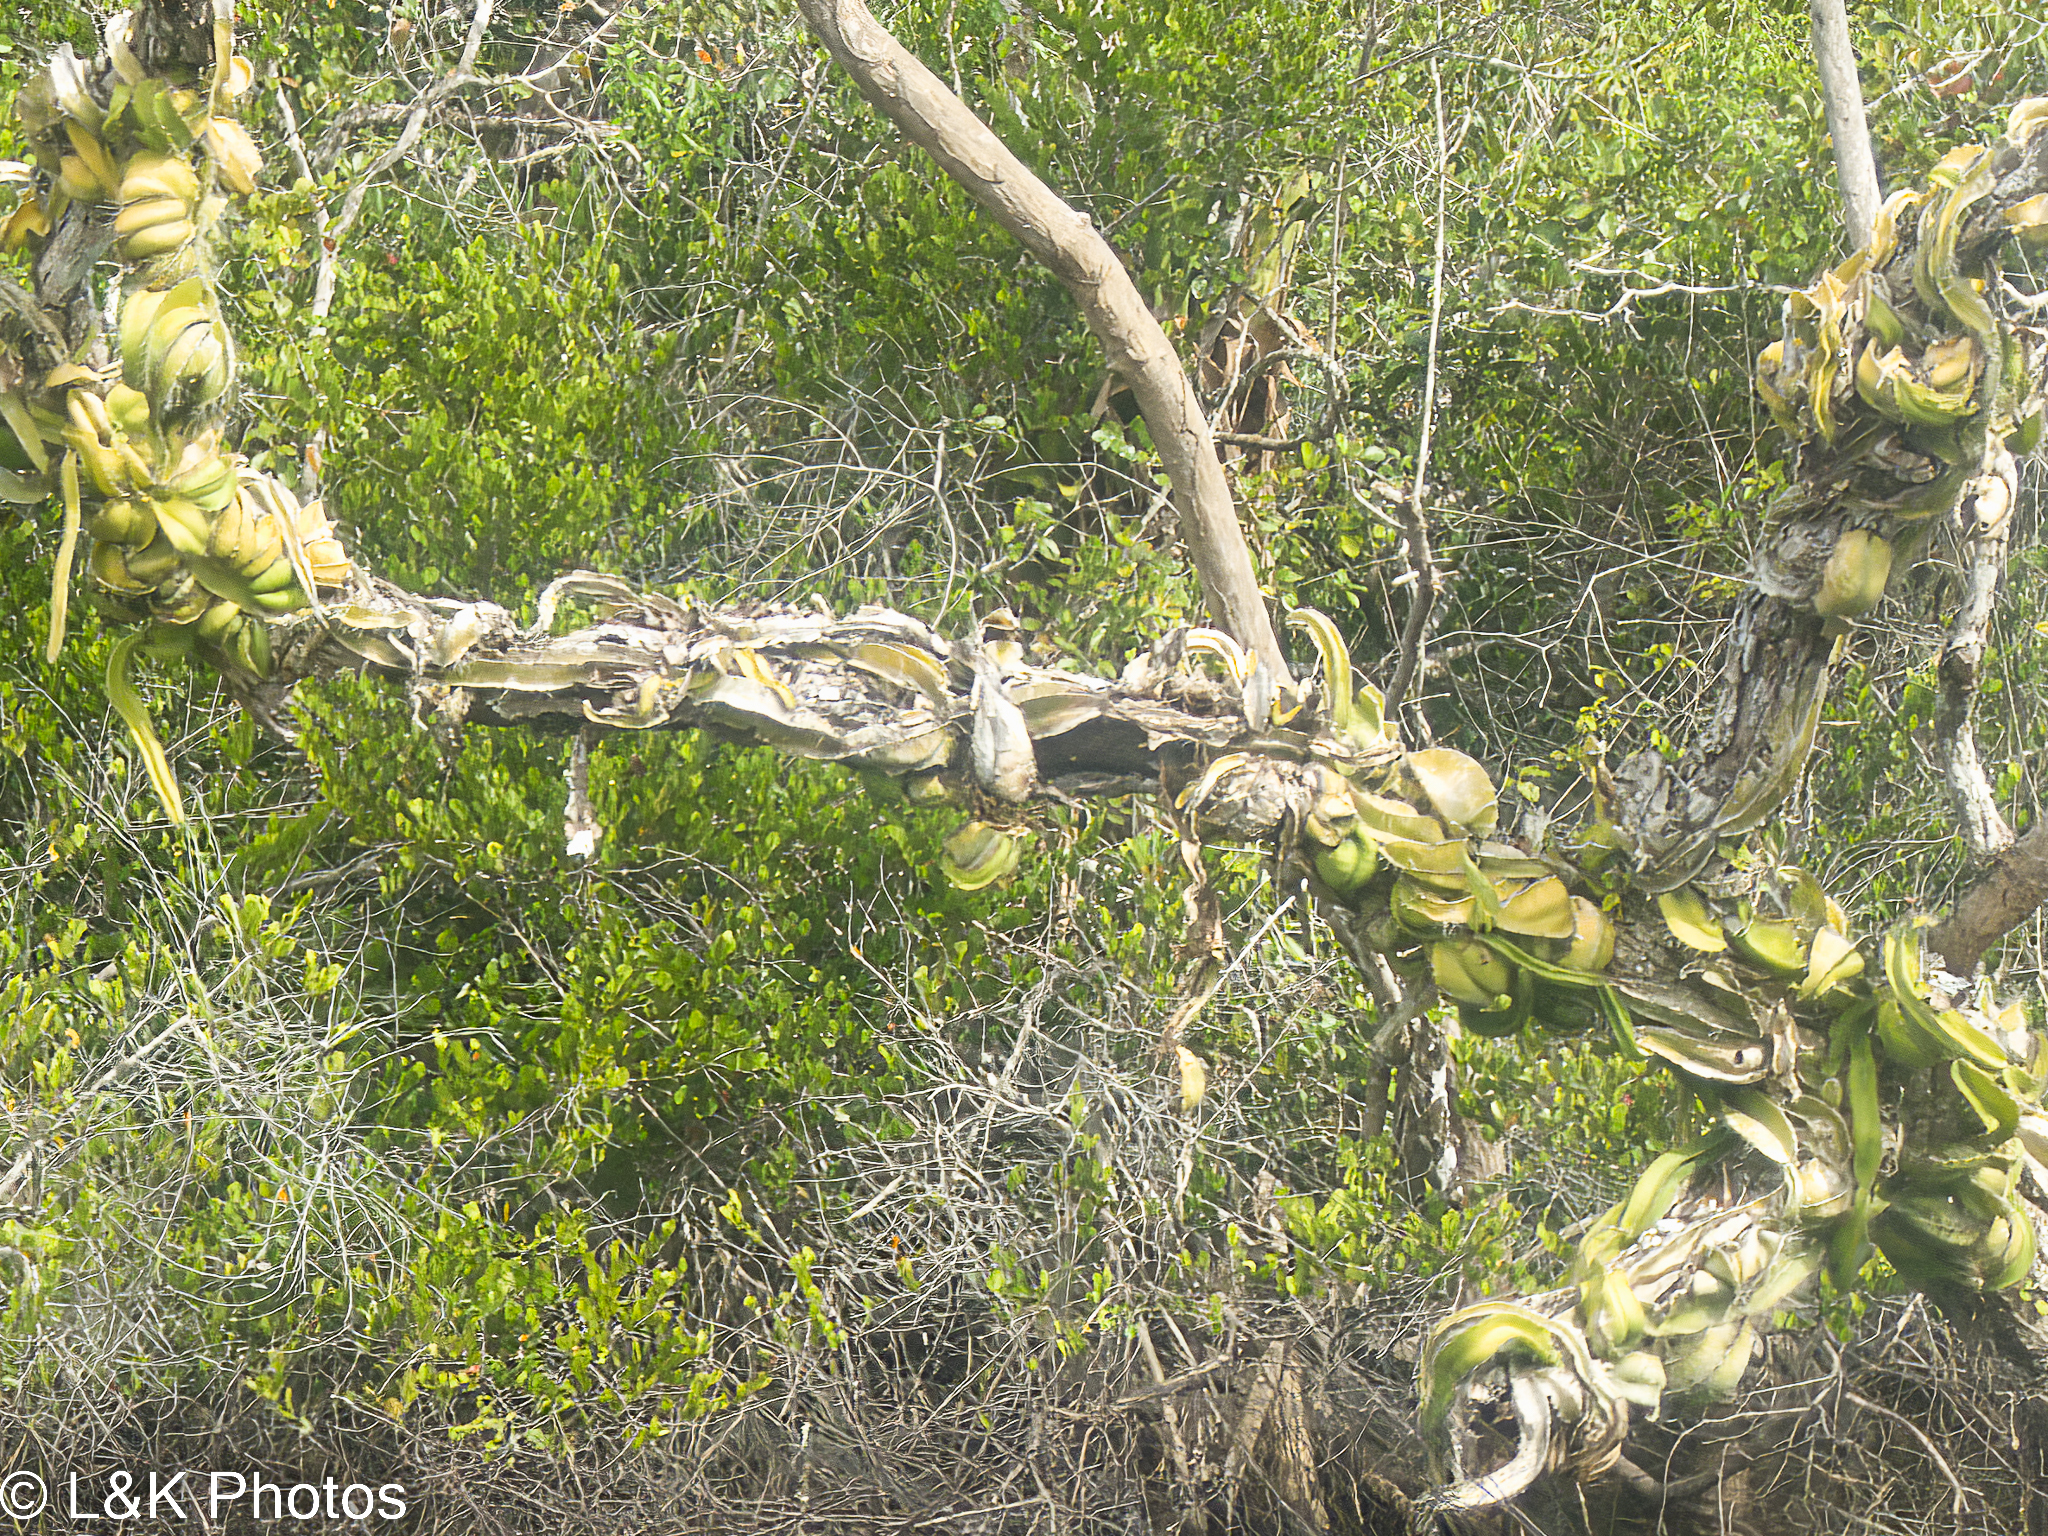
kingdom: Plantae
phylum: Tracheophyta
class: Magnoliopsida
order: Caryophyllales
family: Cactaceae
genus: Deamia
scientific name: Deamia testudo
